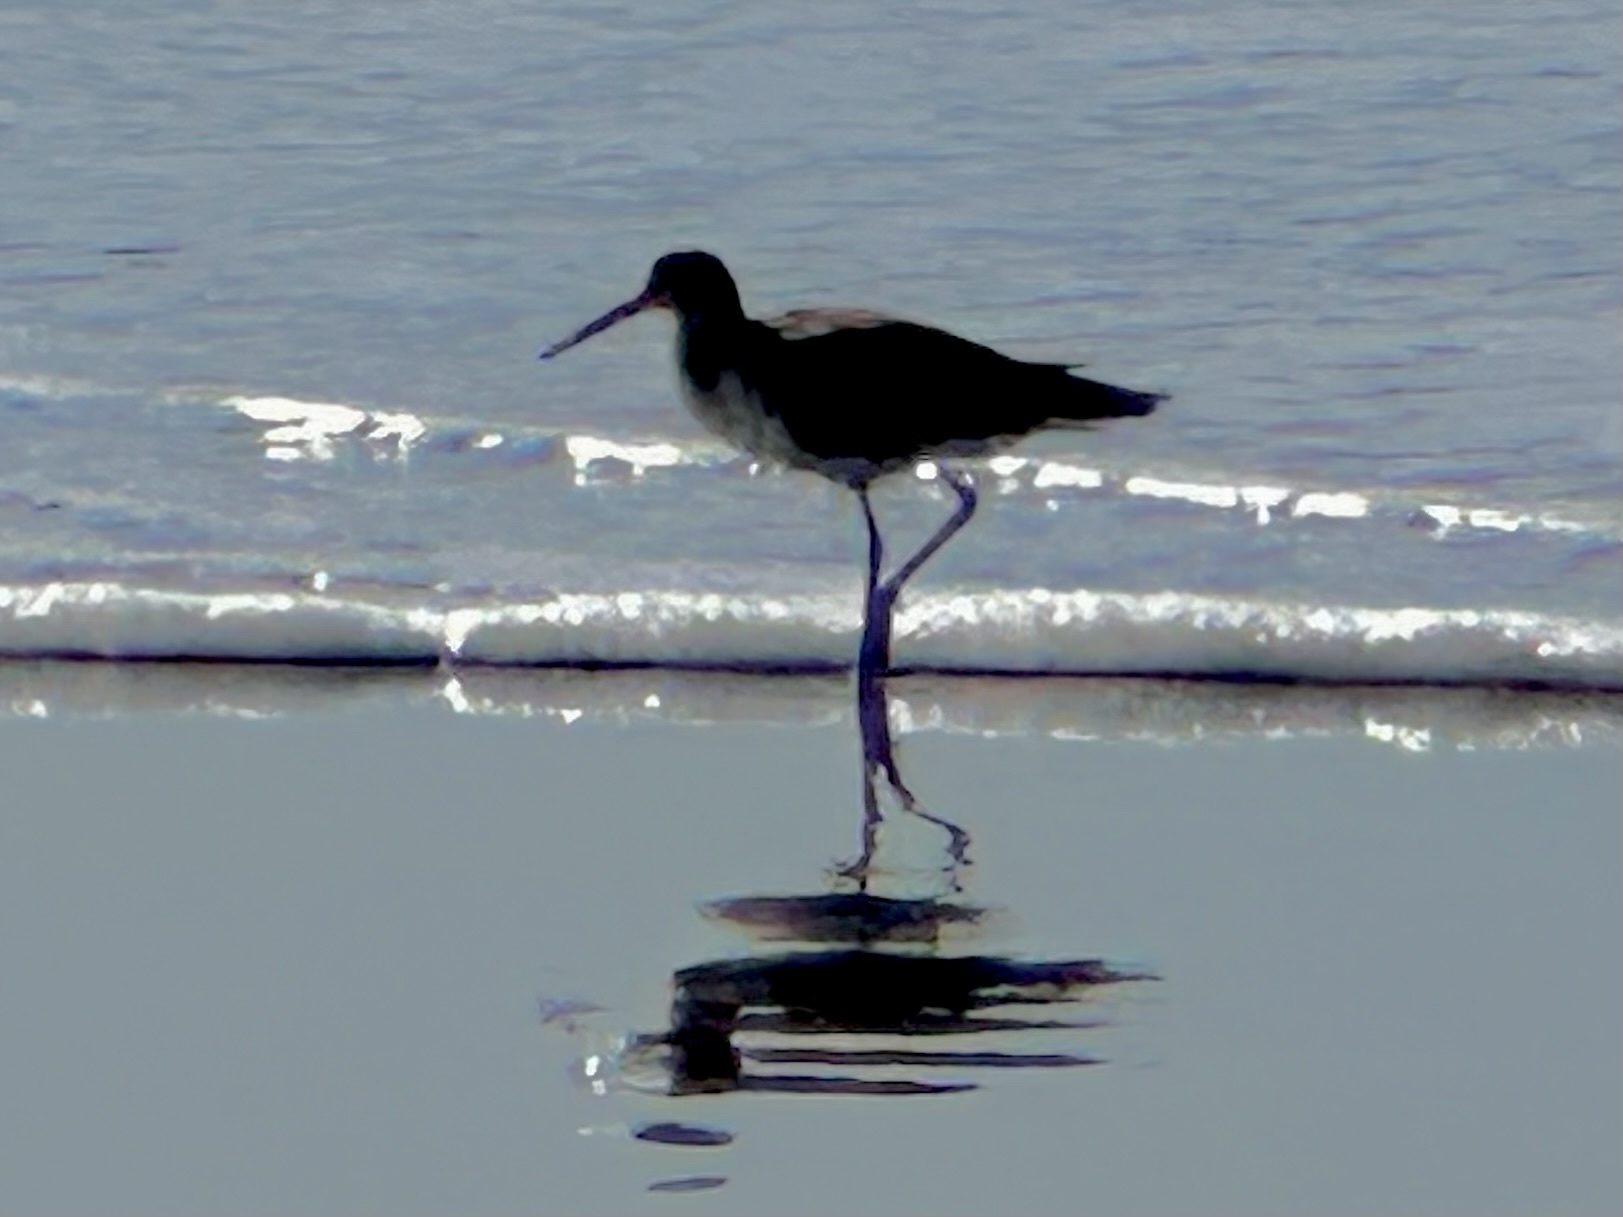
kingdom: Animalia
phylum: Chordata
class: Aves
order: Charadriiformes
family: Scolopacidae
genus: Tringa
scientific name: Tringa semipalmata
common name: Willet
